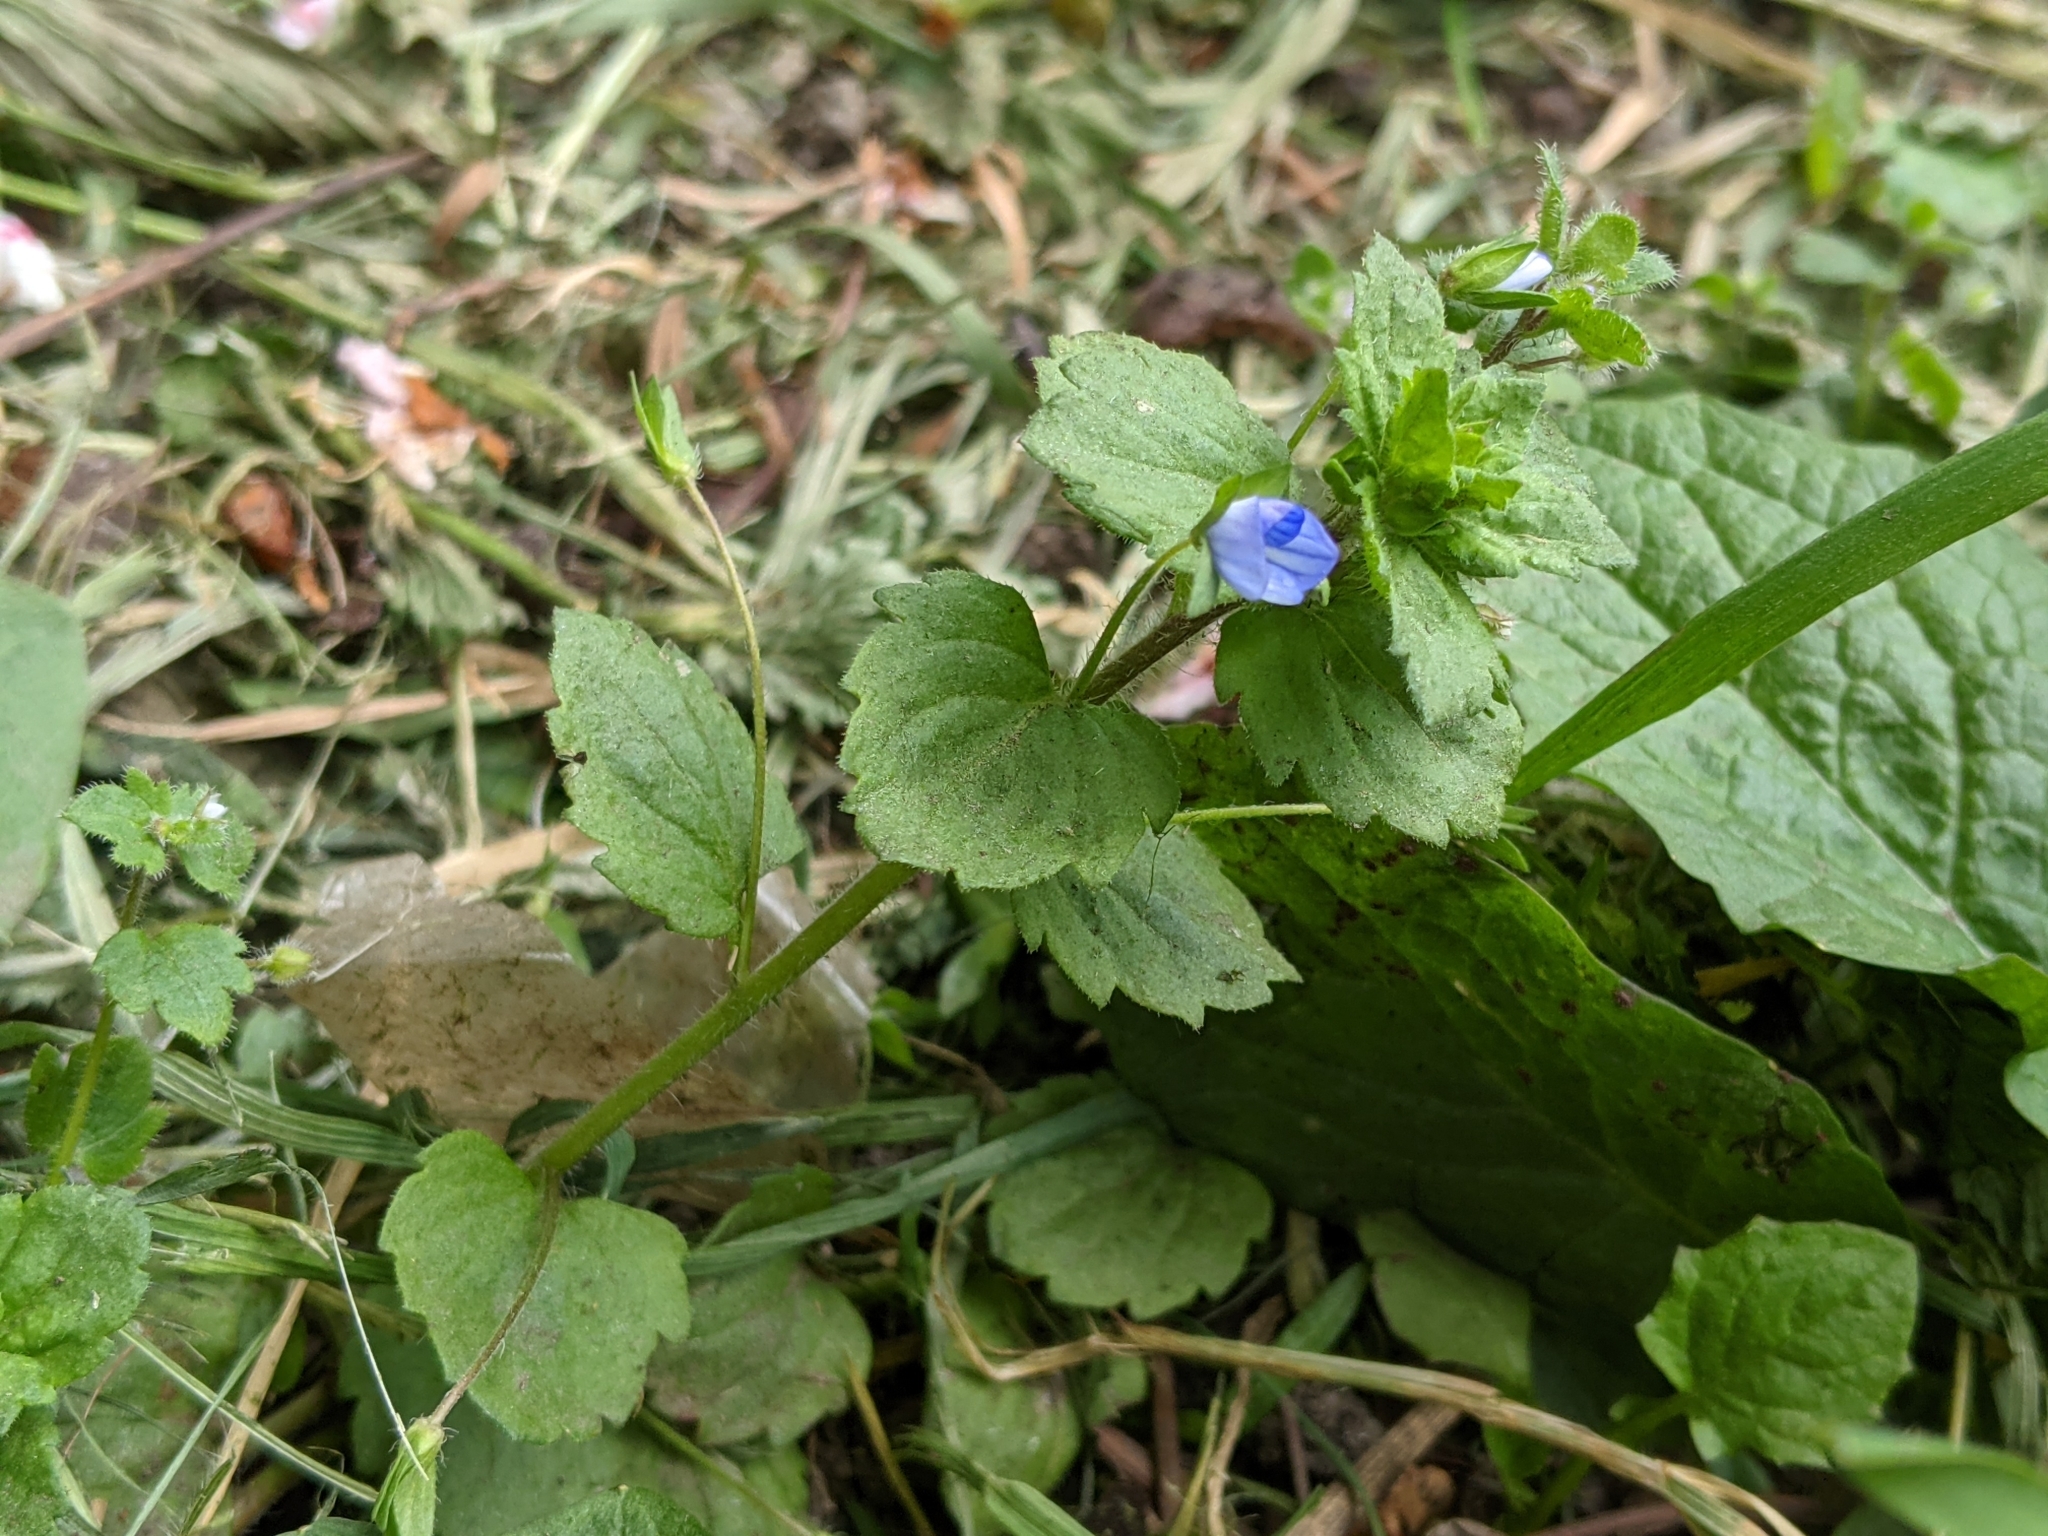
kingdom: Plantae
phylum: Tracheophyta
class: Magnoliopsida
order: Lamiales
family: Plantaginaceae
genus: Veronica
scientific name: Veronica persica
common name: Common field-speedwell
